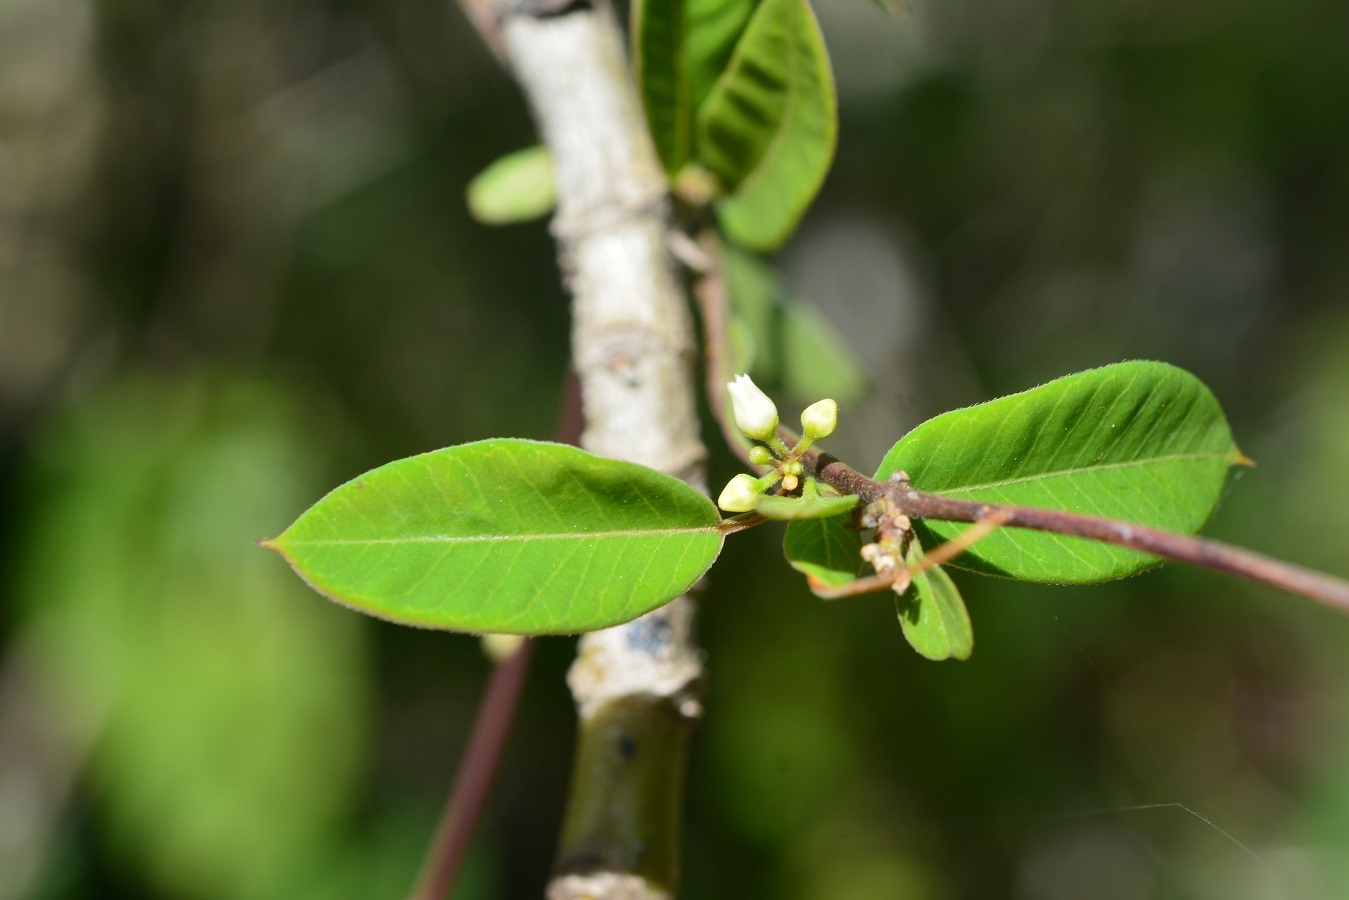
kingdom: Plantae
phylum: Tracheophyta
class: Magnoliopsida
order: Gentianales
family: Apocynaceae
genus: Metastelma
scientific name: Metastelma schlechtendalii
